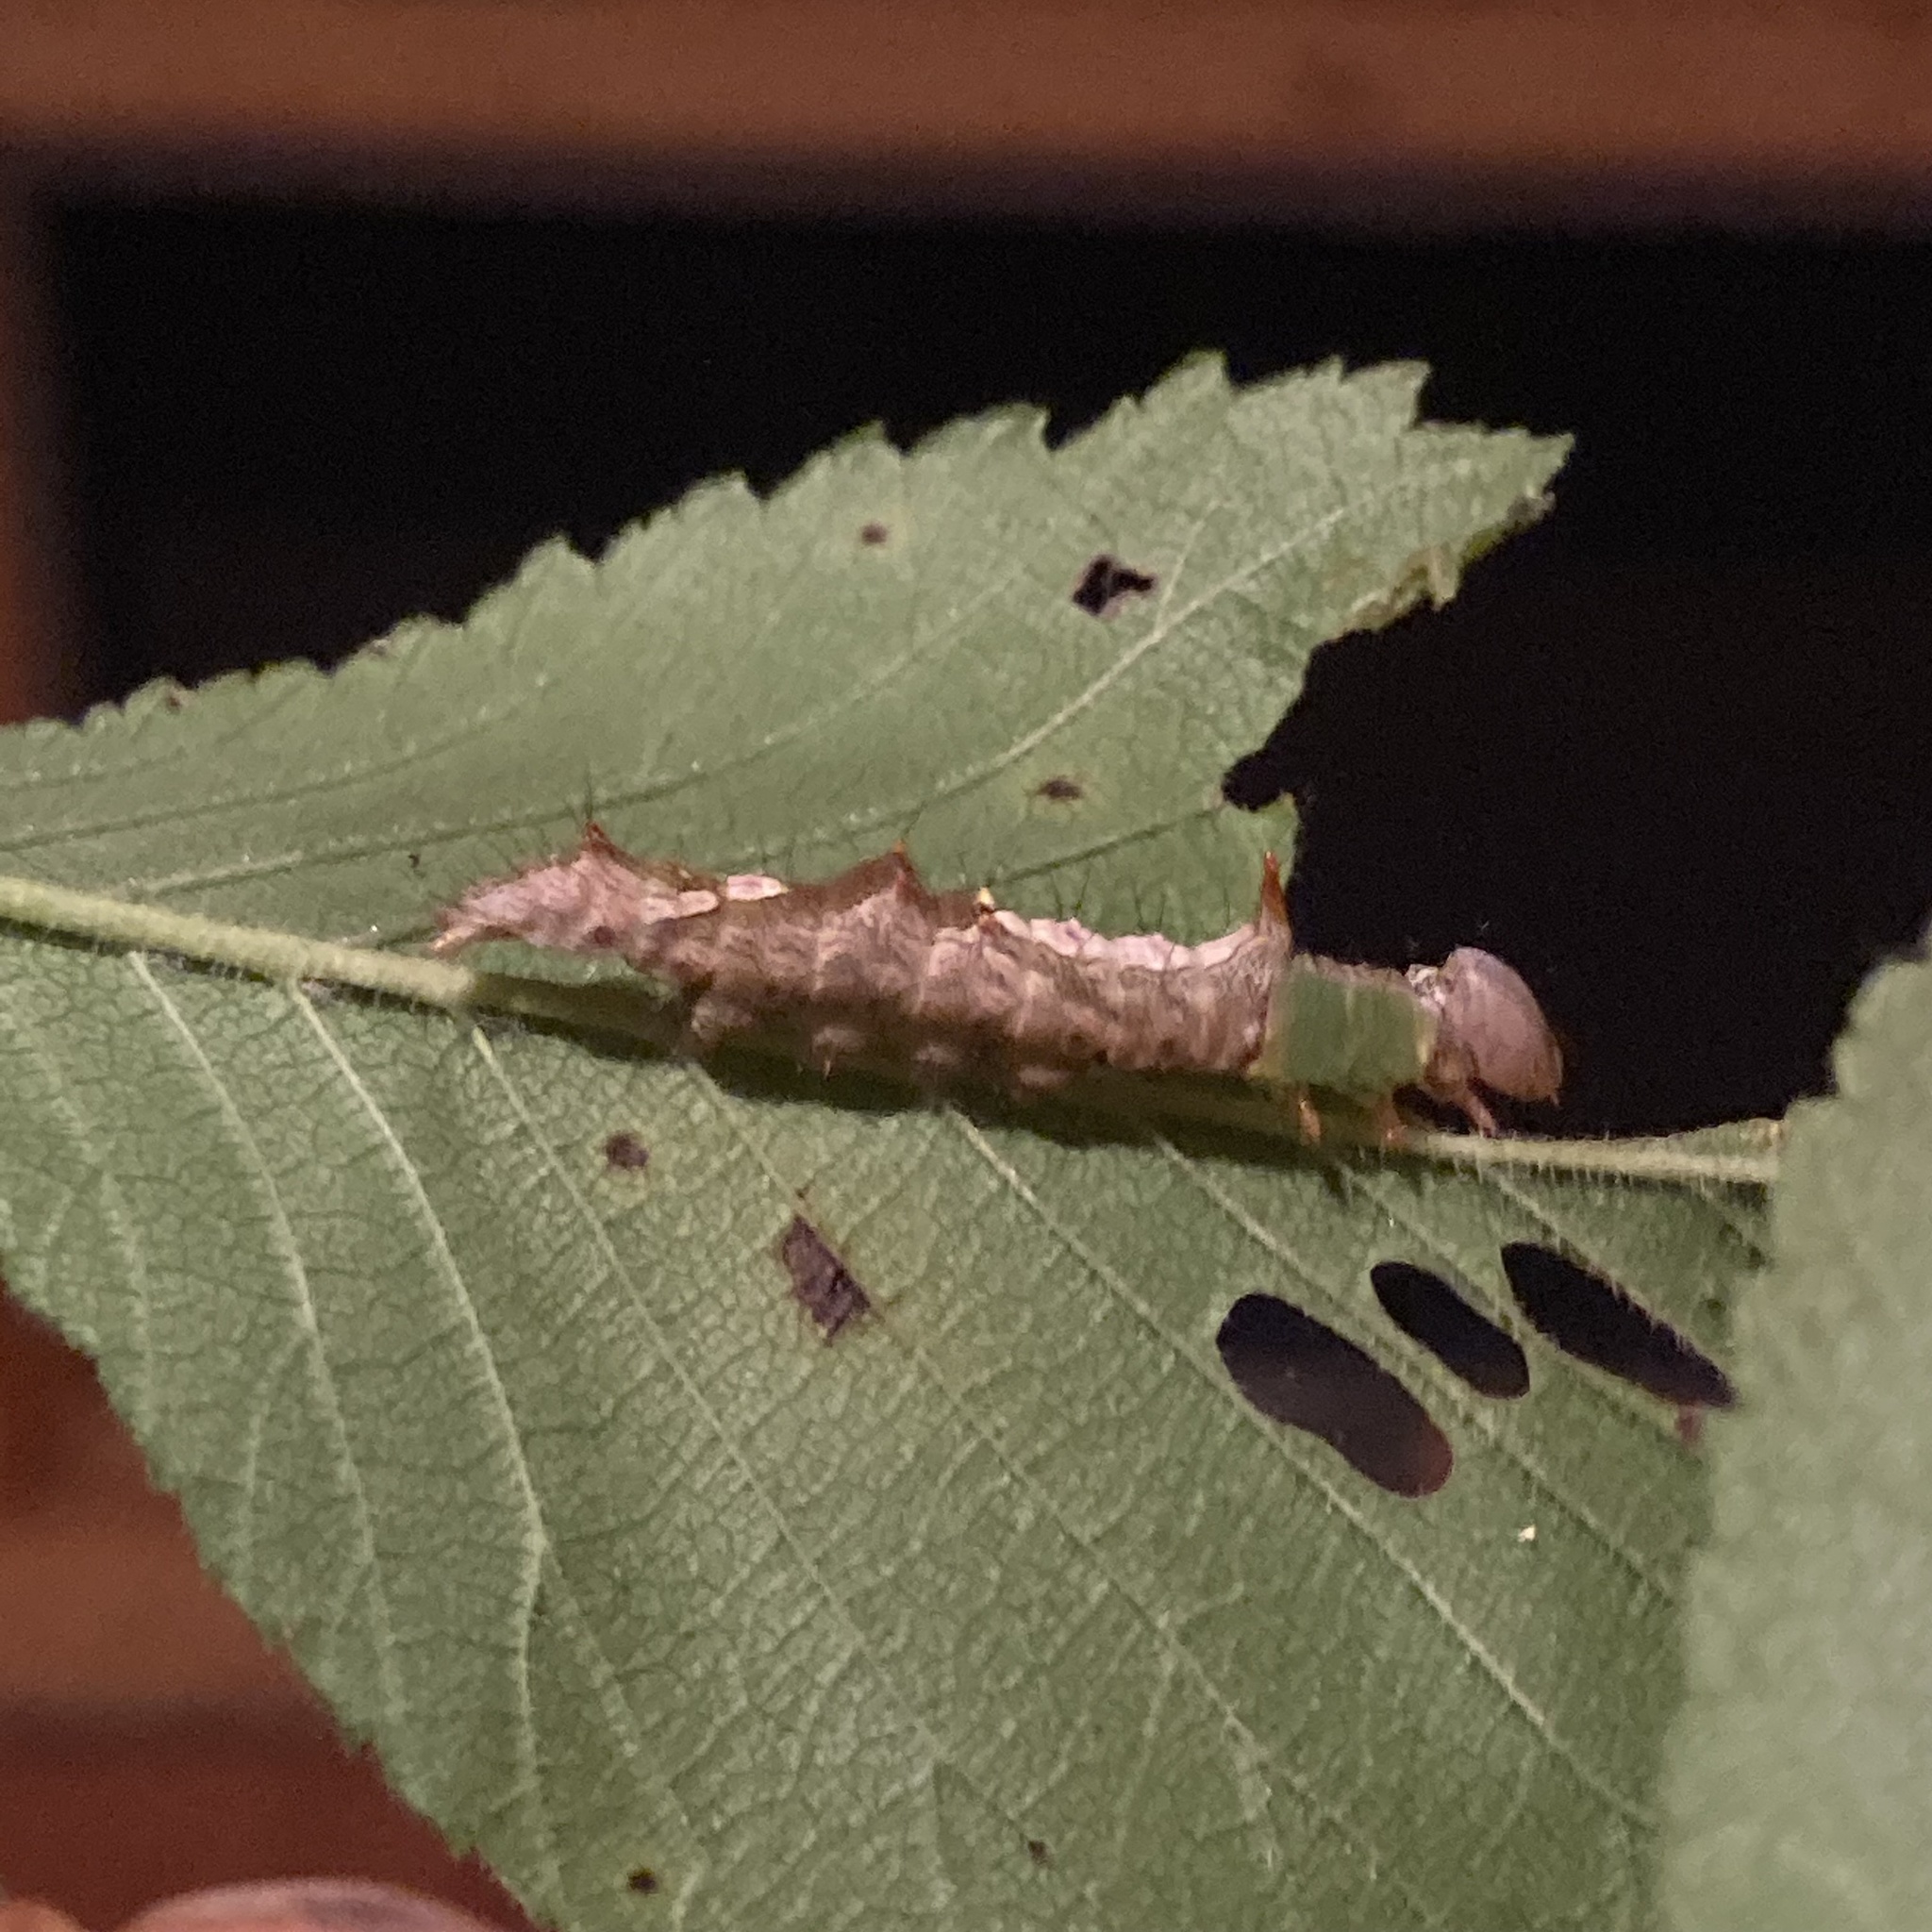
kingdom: Animalia
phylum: Arthropoda
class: Insecta
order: Lepidoptera
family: Notodontidae
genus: Schizura
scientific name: Schizura ipomaeae
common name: Morning-glory prominent
